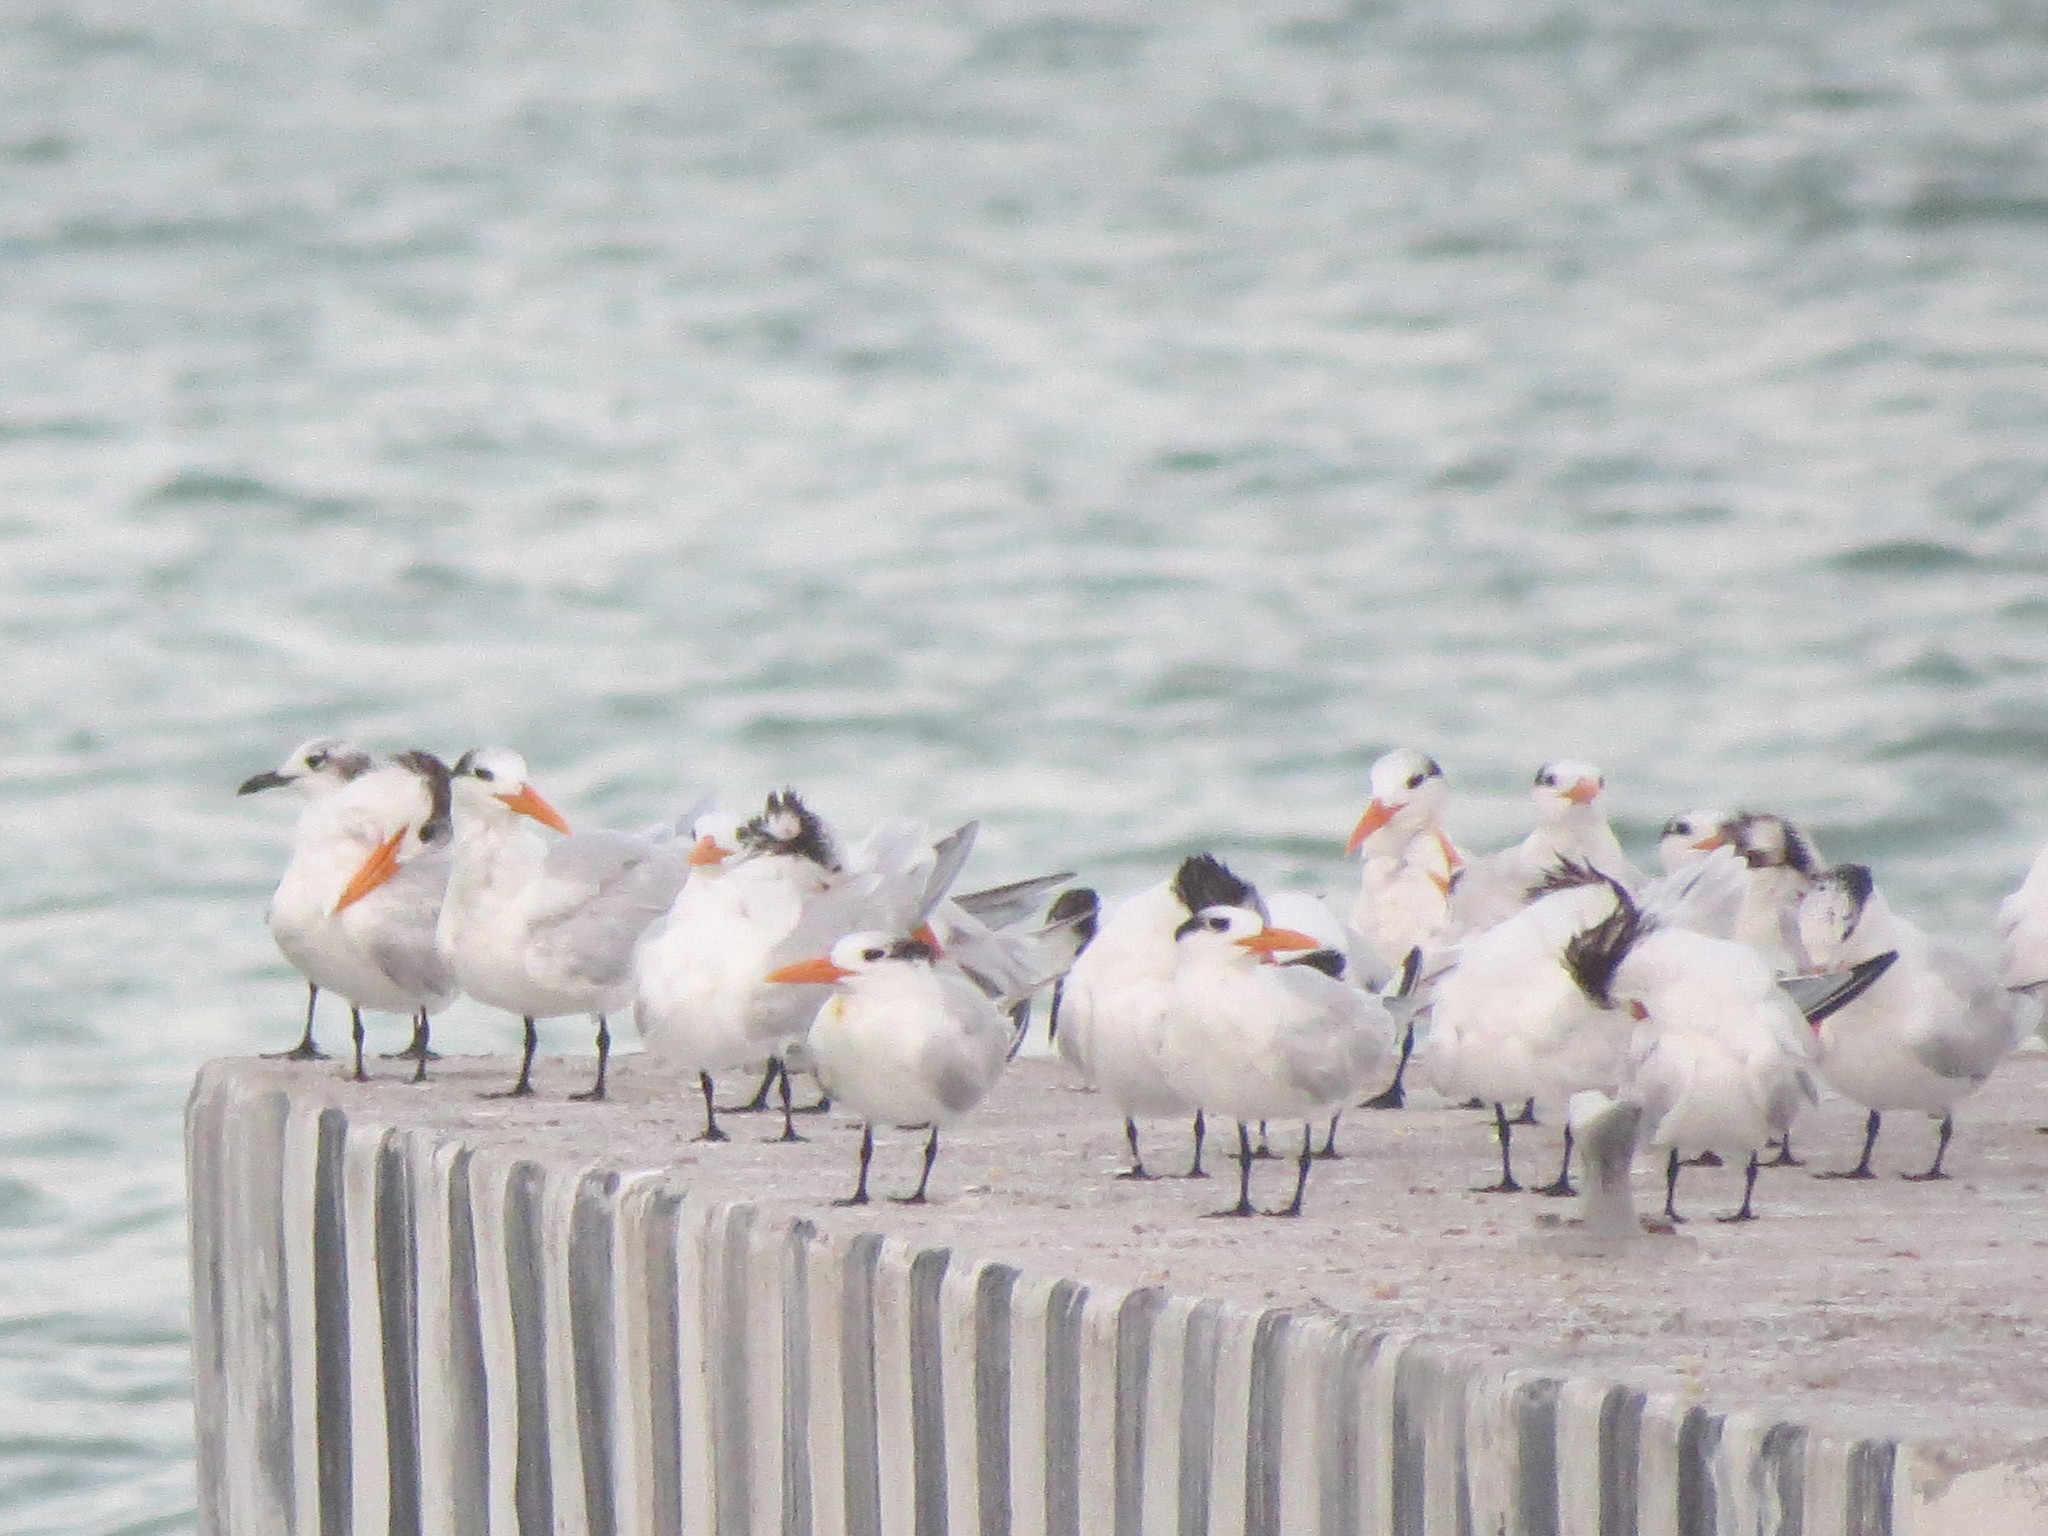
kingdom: Animalia
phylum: Chordata
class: Aves
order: Charadriiformes
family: Laridae
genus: Thalasseus
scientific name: Thalasseus maximus
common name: Royal tern
